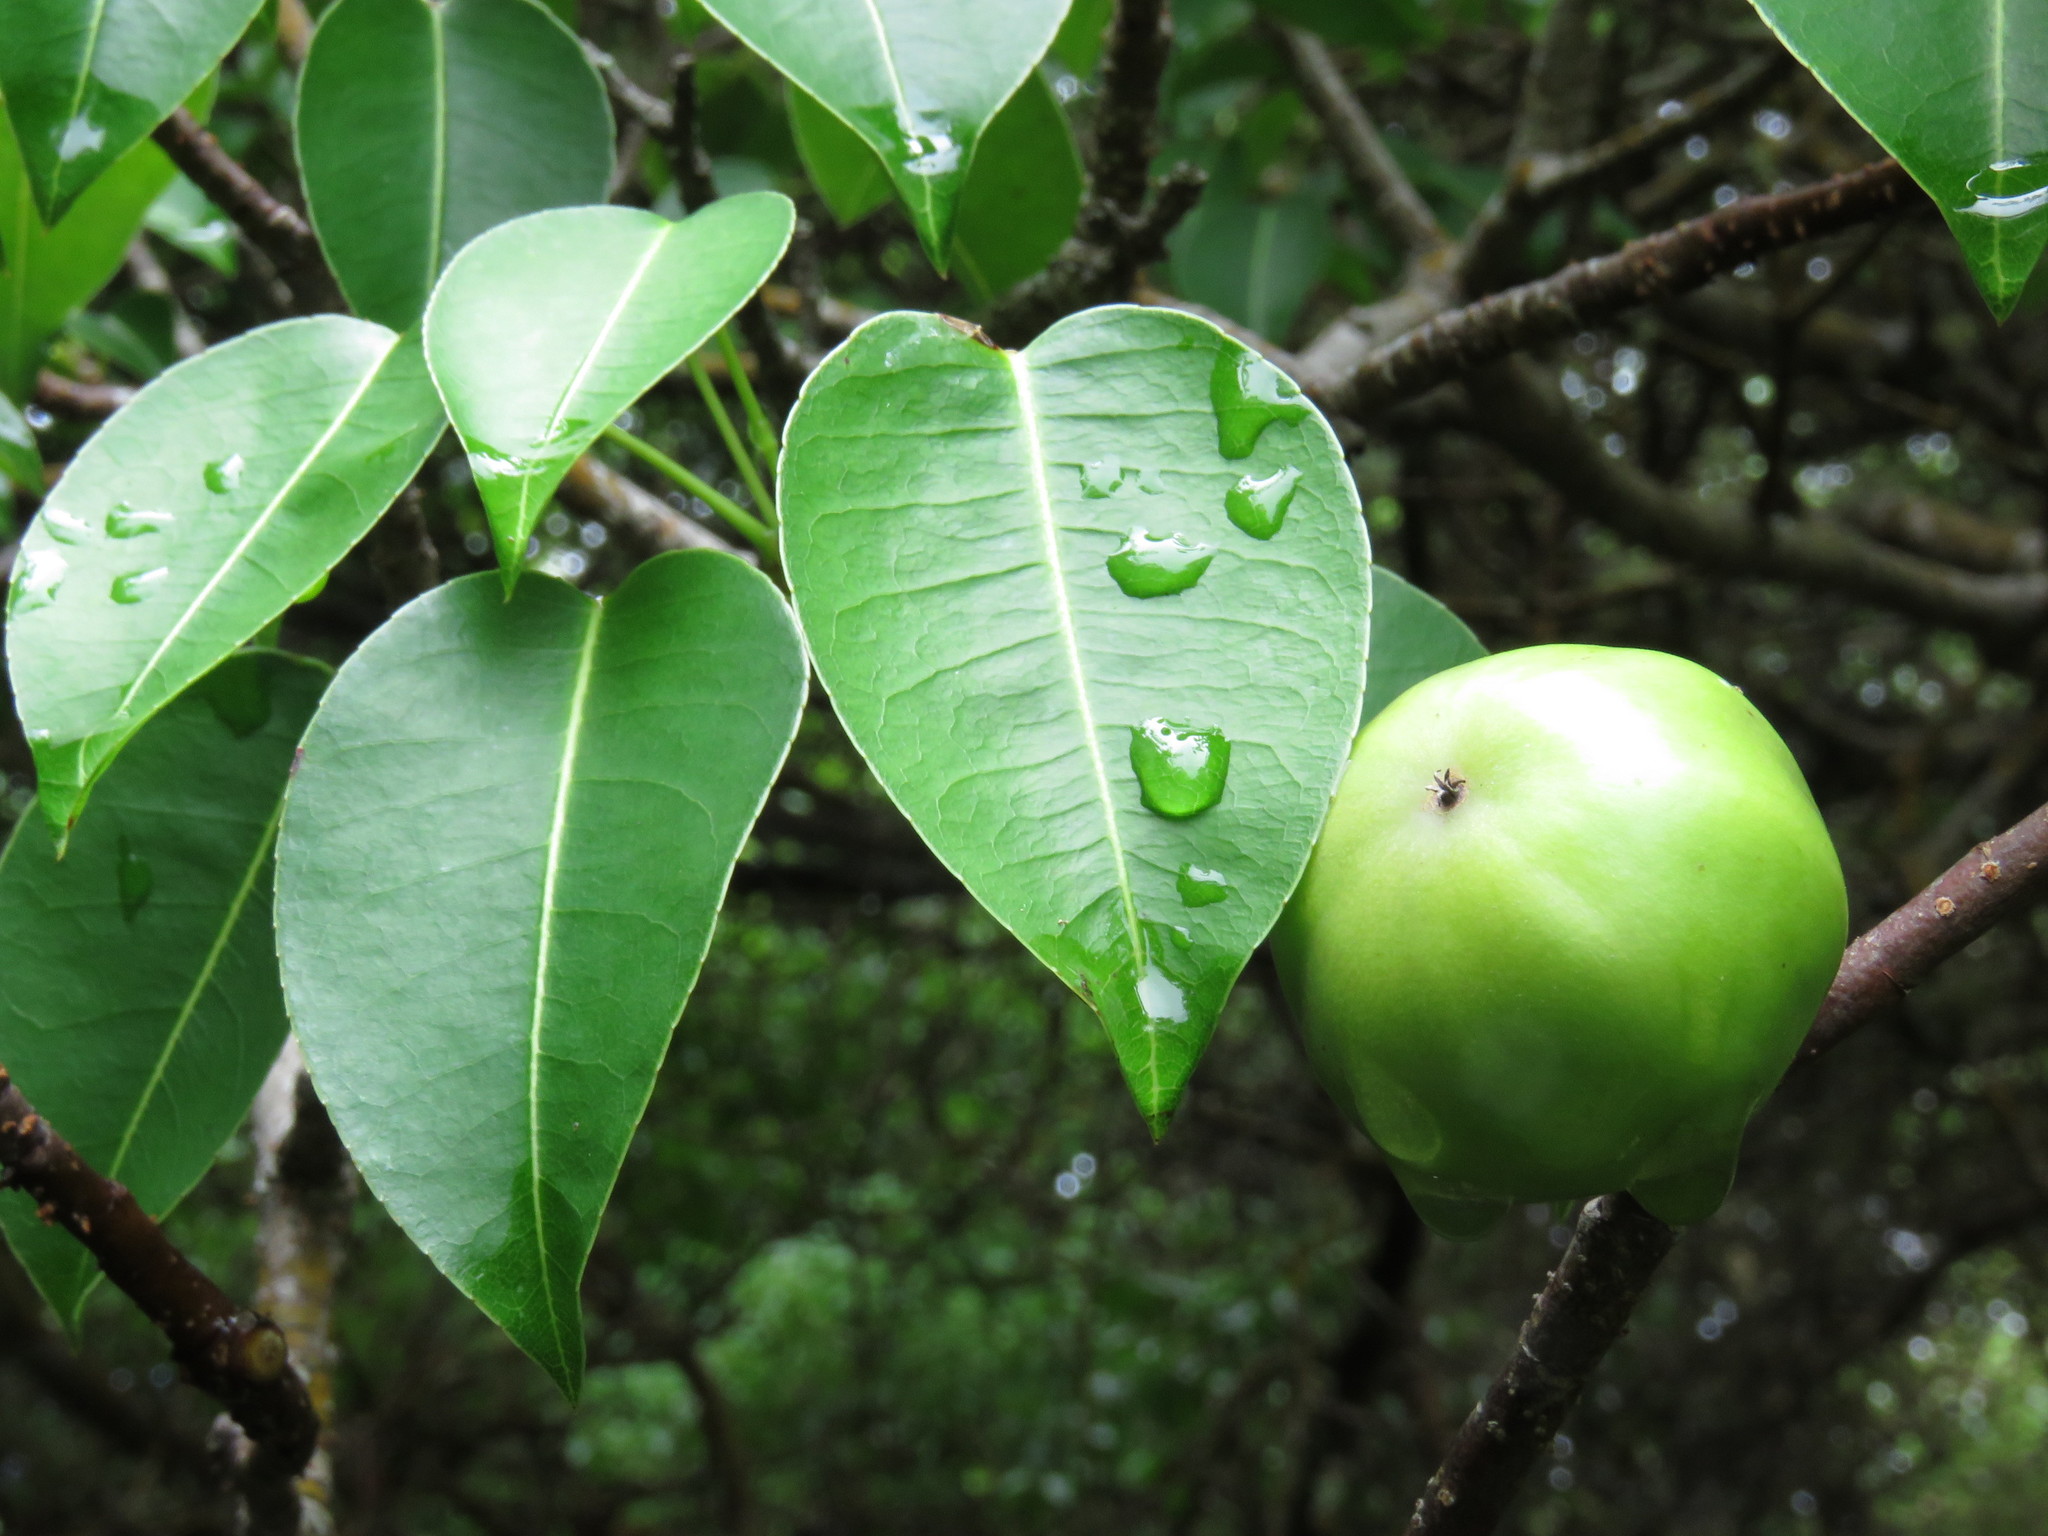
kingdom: Plantae
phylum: Tracheophyta
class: Magnoliopsida
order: Malpighiales
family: Euphorbiaceae
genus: Hippomane
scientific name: Hippomane mancinella
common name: Manchineel
